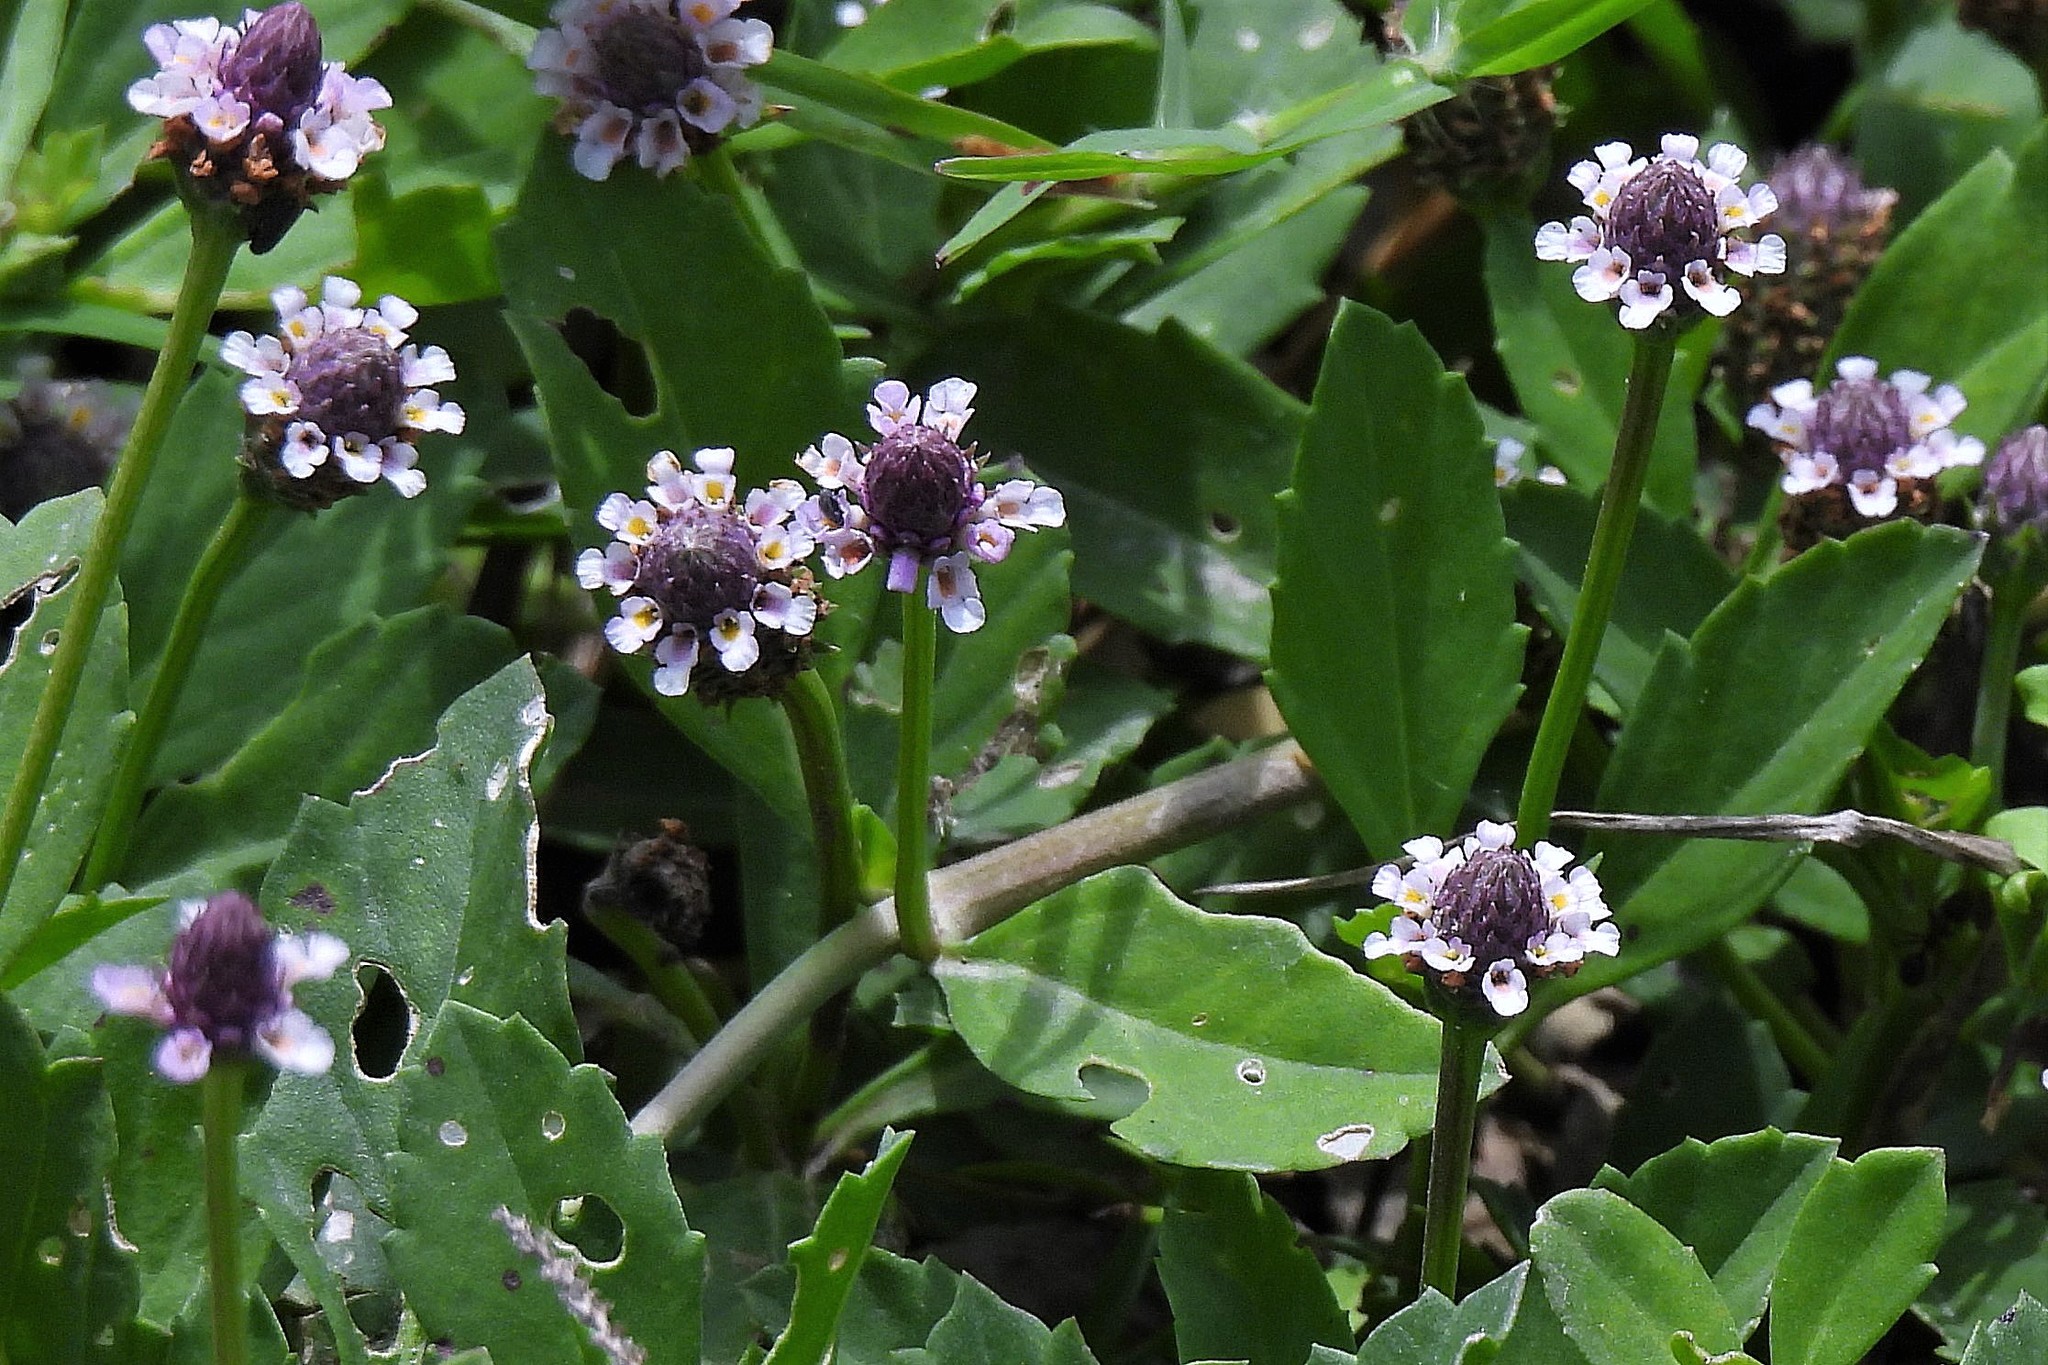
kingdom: Plantae
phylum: Tracheophyta
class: Magnoliopsida
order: Lamiales
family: Verbenaceae
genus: Phyla
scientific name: Phyla nodiflora
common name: Frogfruit
